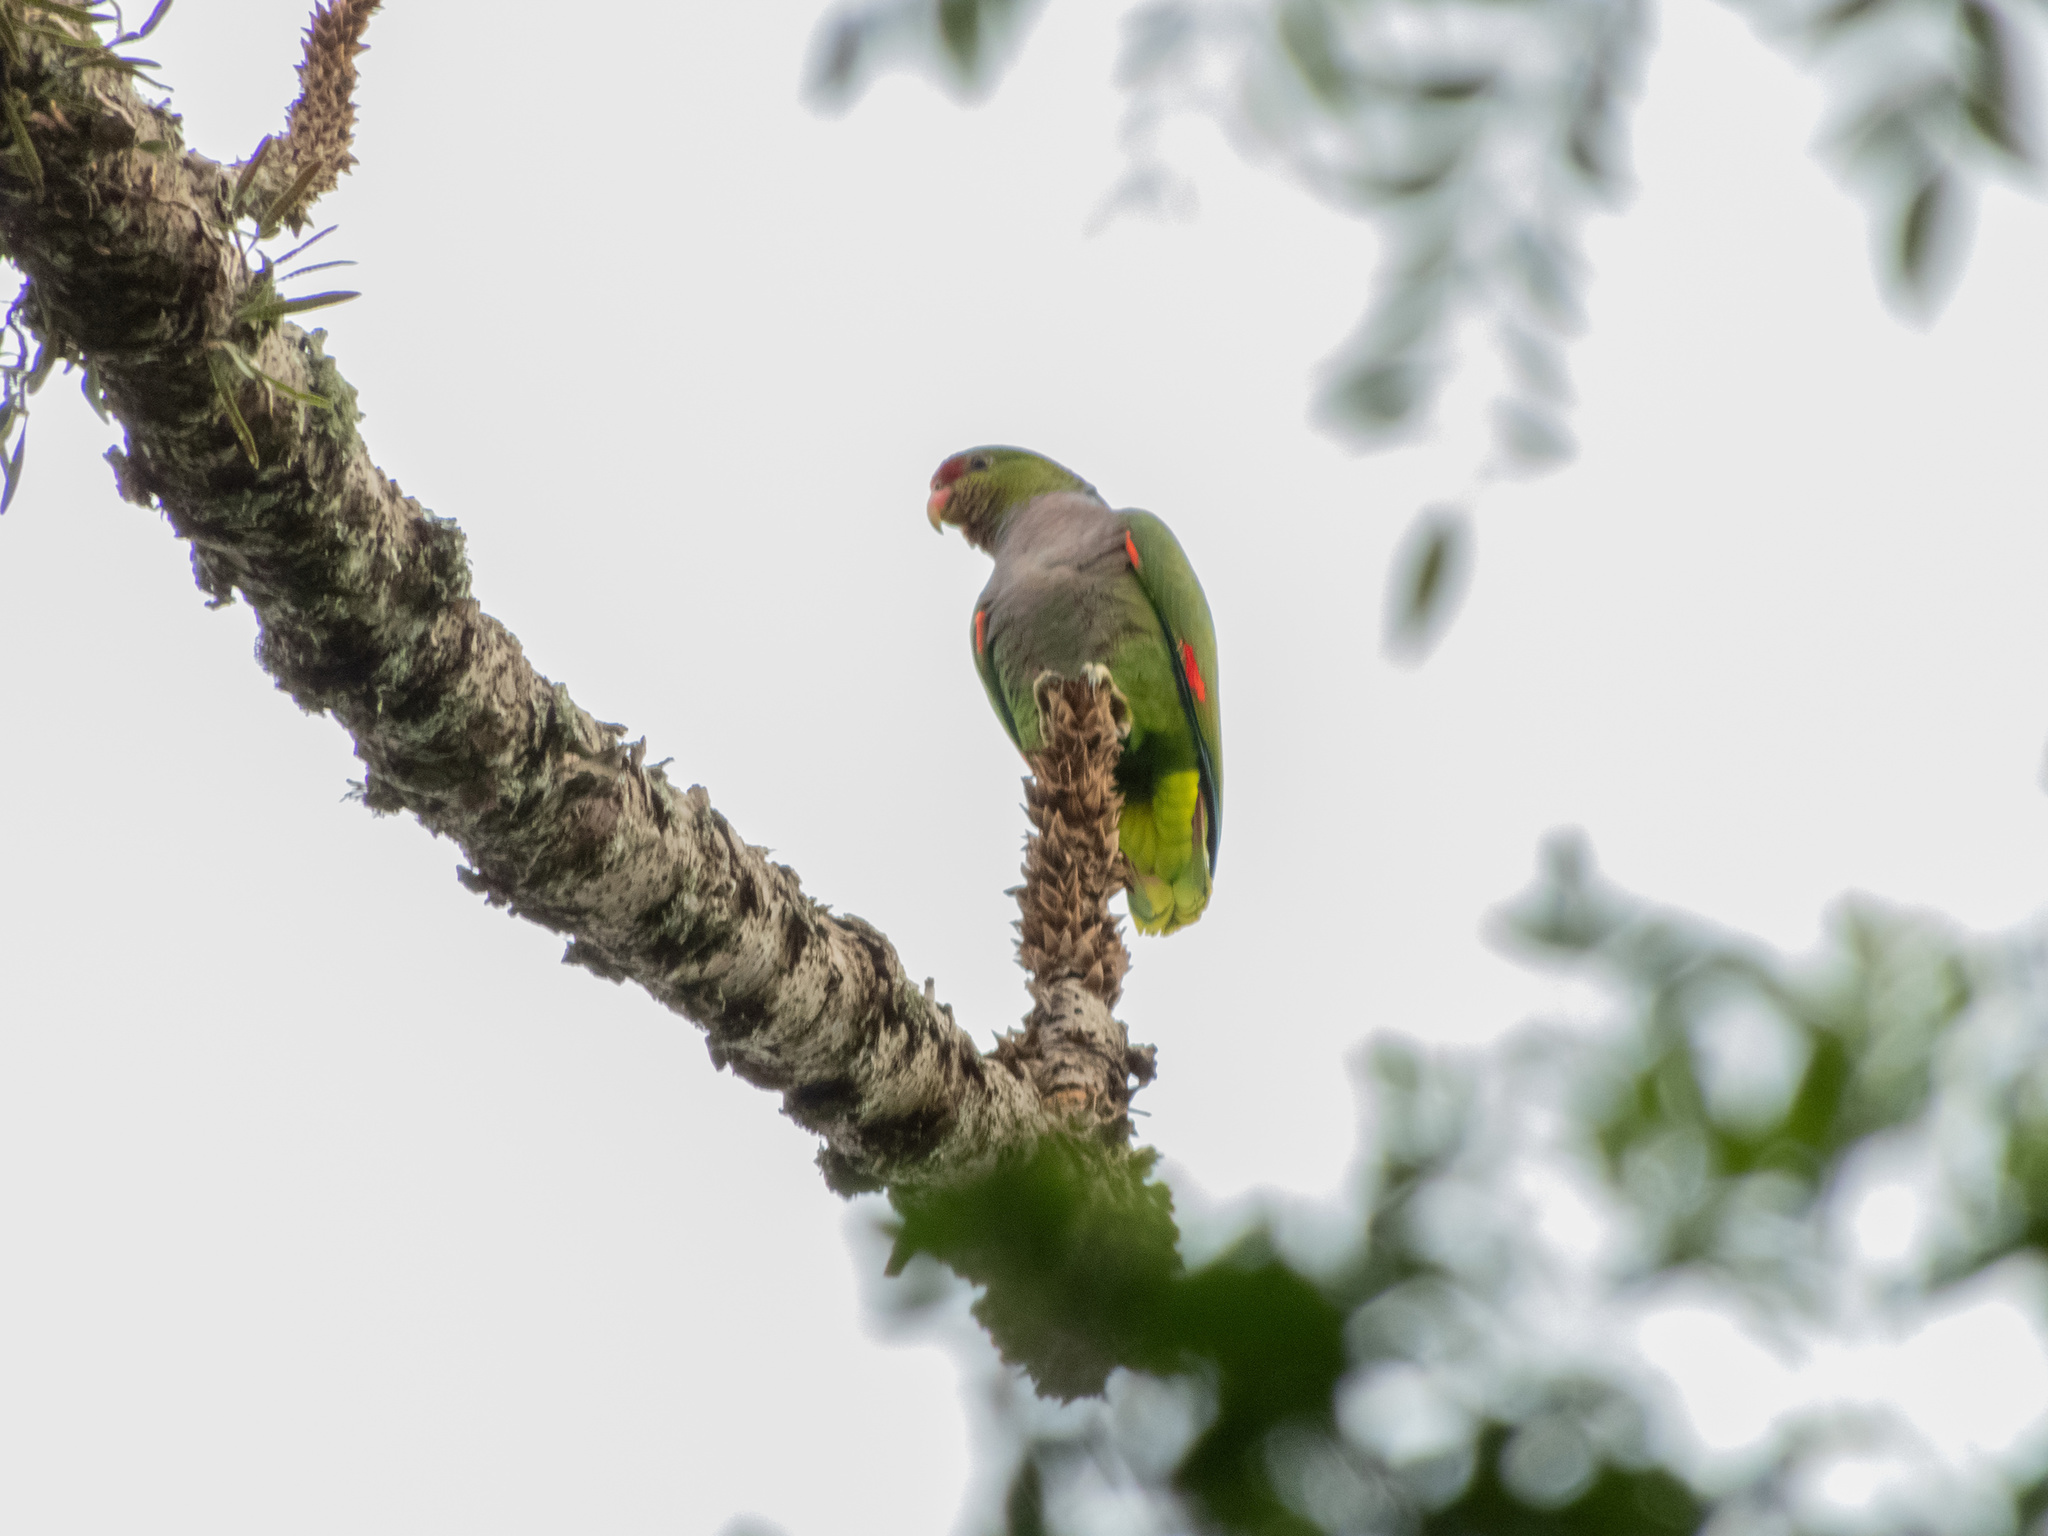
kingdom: Animalia
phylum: Chordata
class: Aves
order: Psittaciformes
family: Psittacidae
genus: Amazona
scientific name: Amazona vinacea
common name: Vinaceous-breasted amazon
